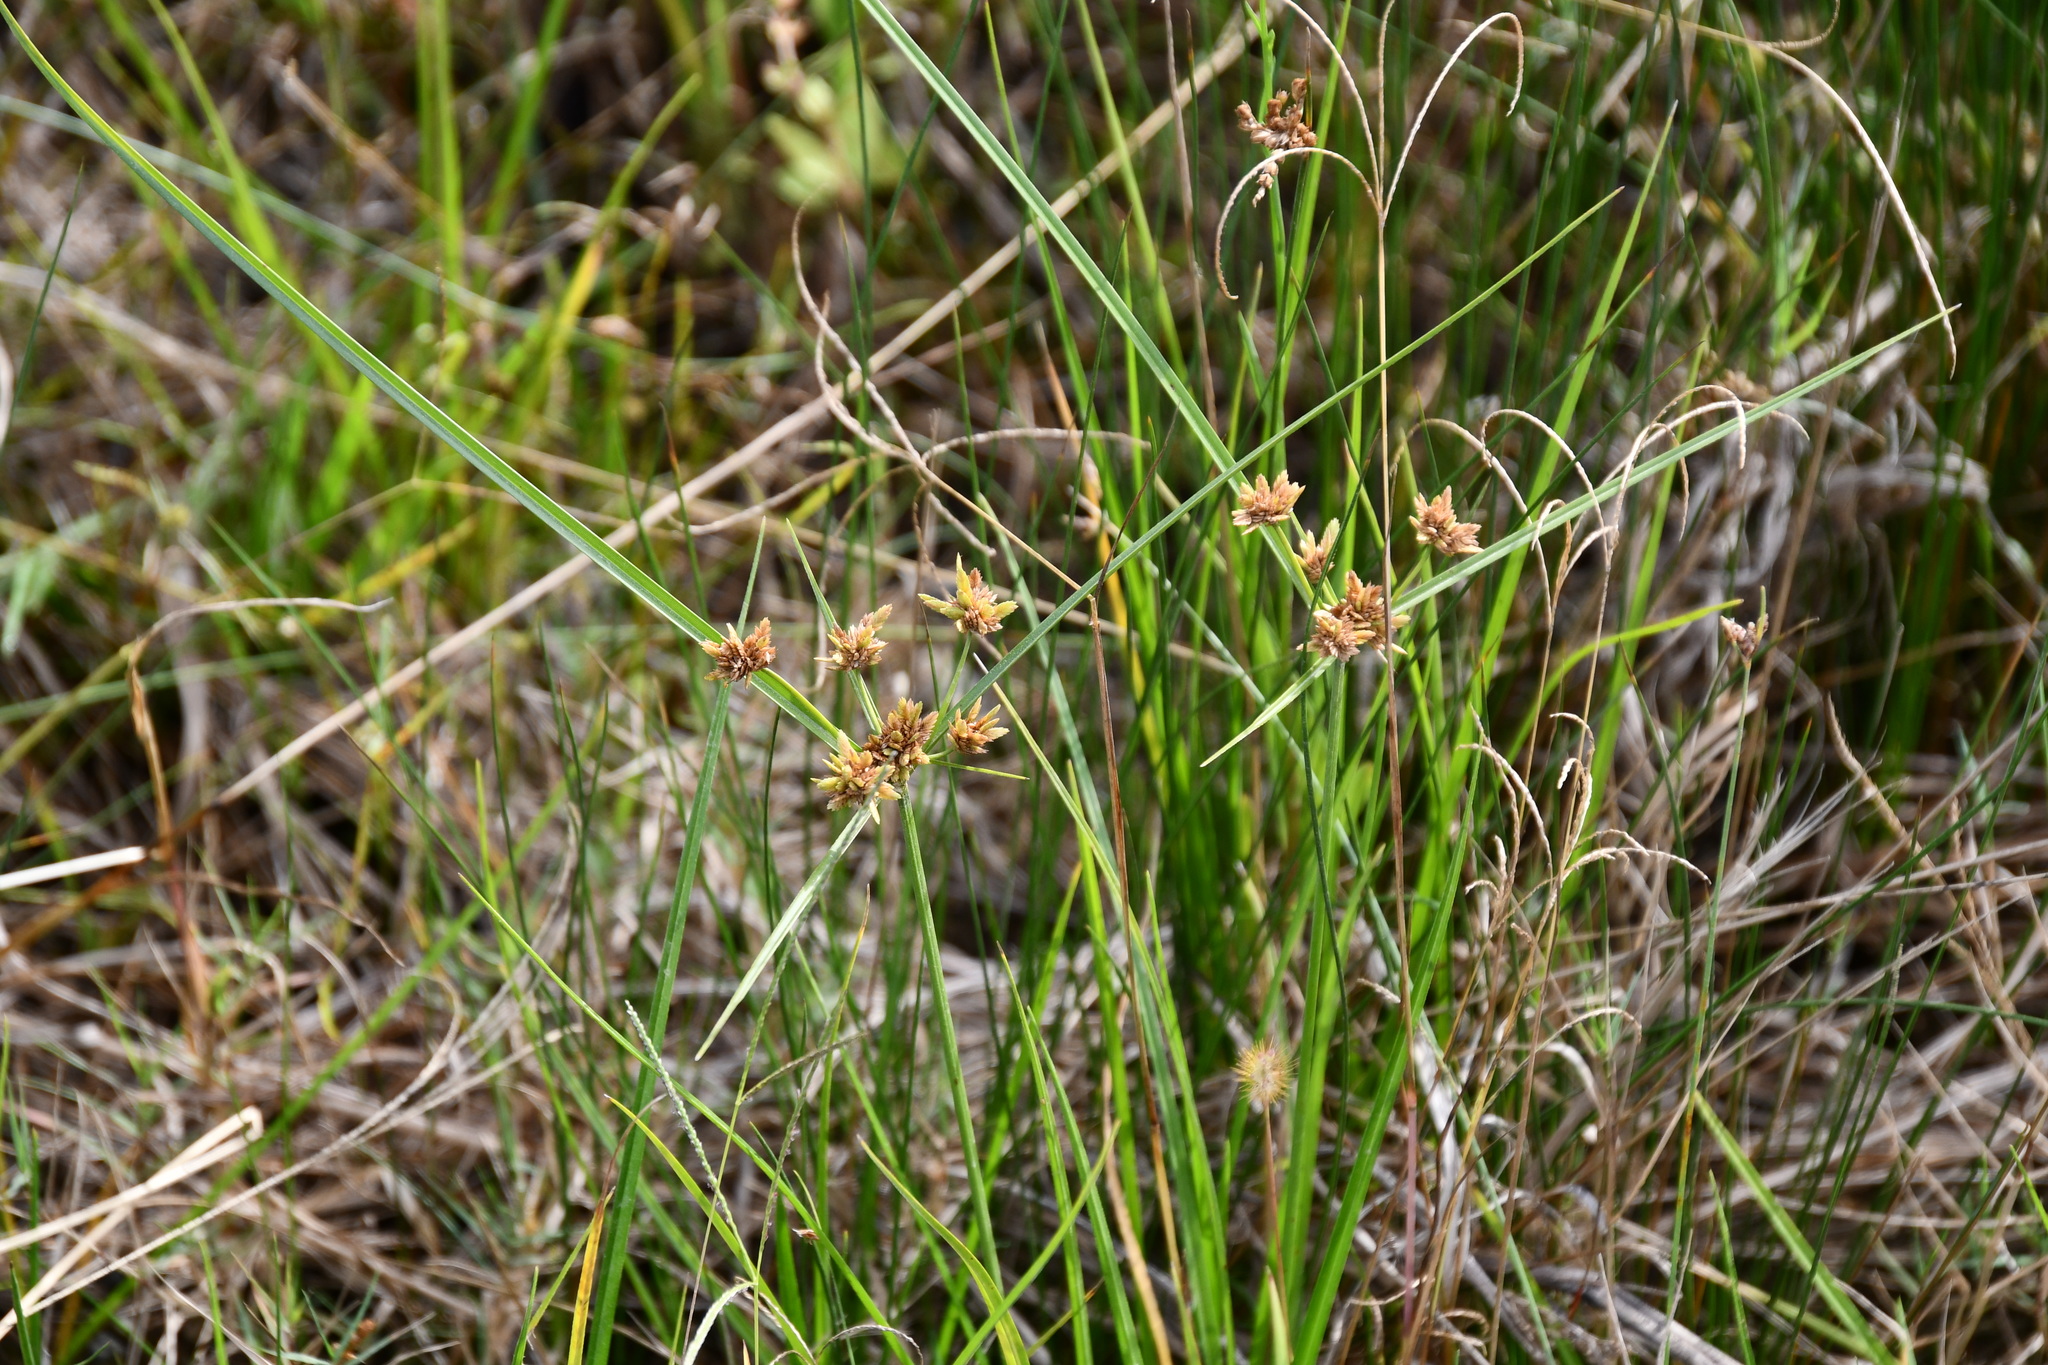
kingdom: Plantae
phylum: Tracheophyta
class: Liliopsida
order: Poales
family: Cyperaceae
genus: Cyperus
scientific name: Cyperus eragrostis
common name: Tall flatsedge
